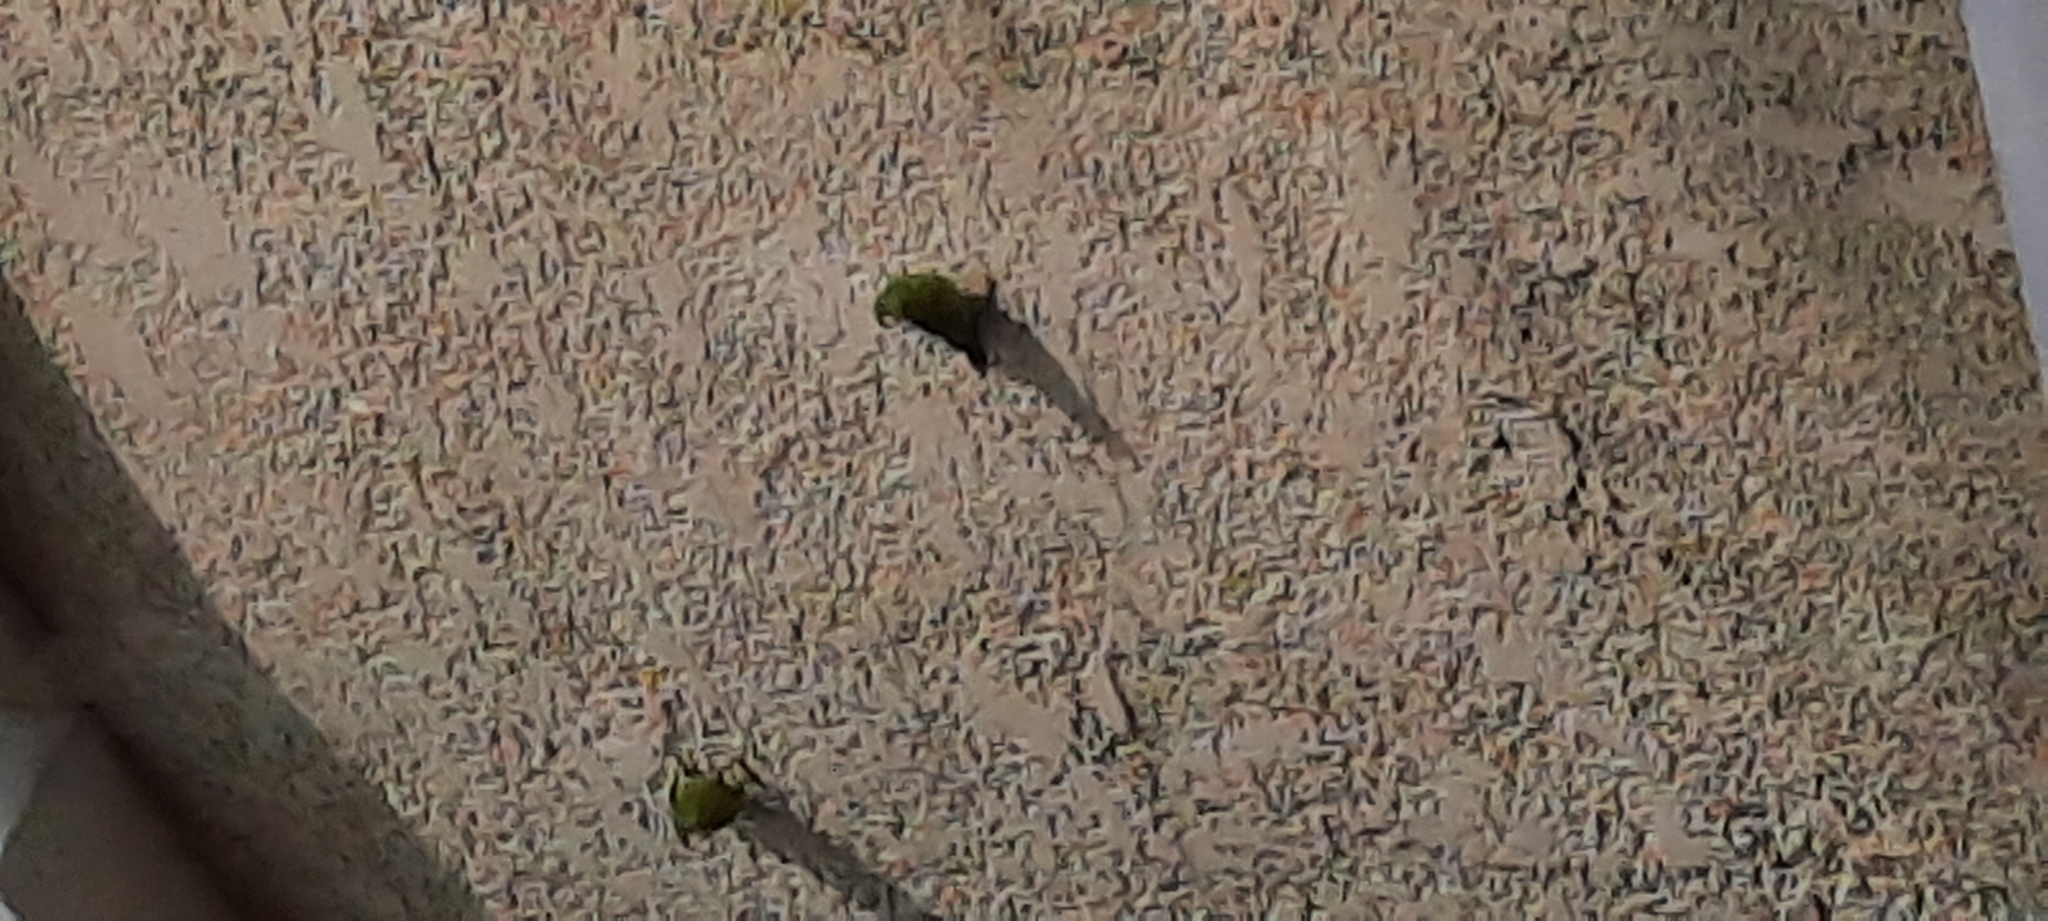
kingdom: Animalia
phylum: Chordata
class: Aves
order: Psittaciformes
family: Psittacidae
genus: Brotogeris
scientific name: Brotogeris jugularis
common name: Orange-chinned parakeet
